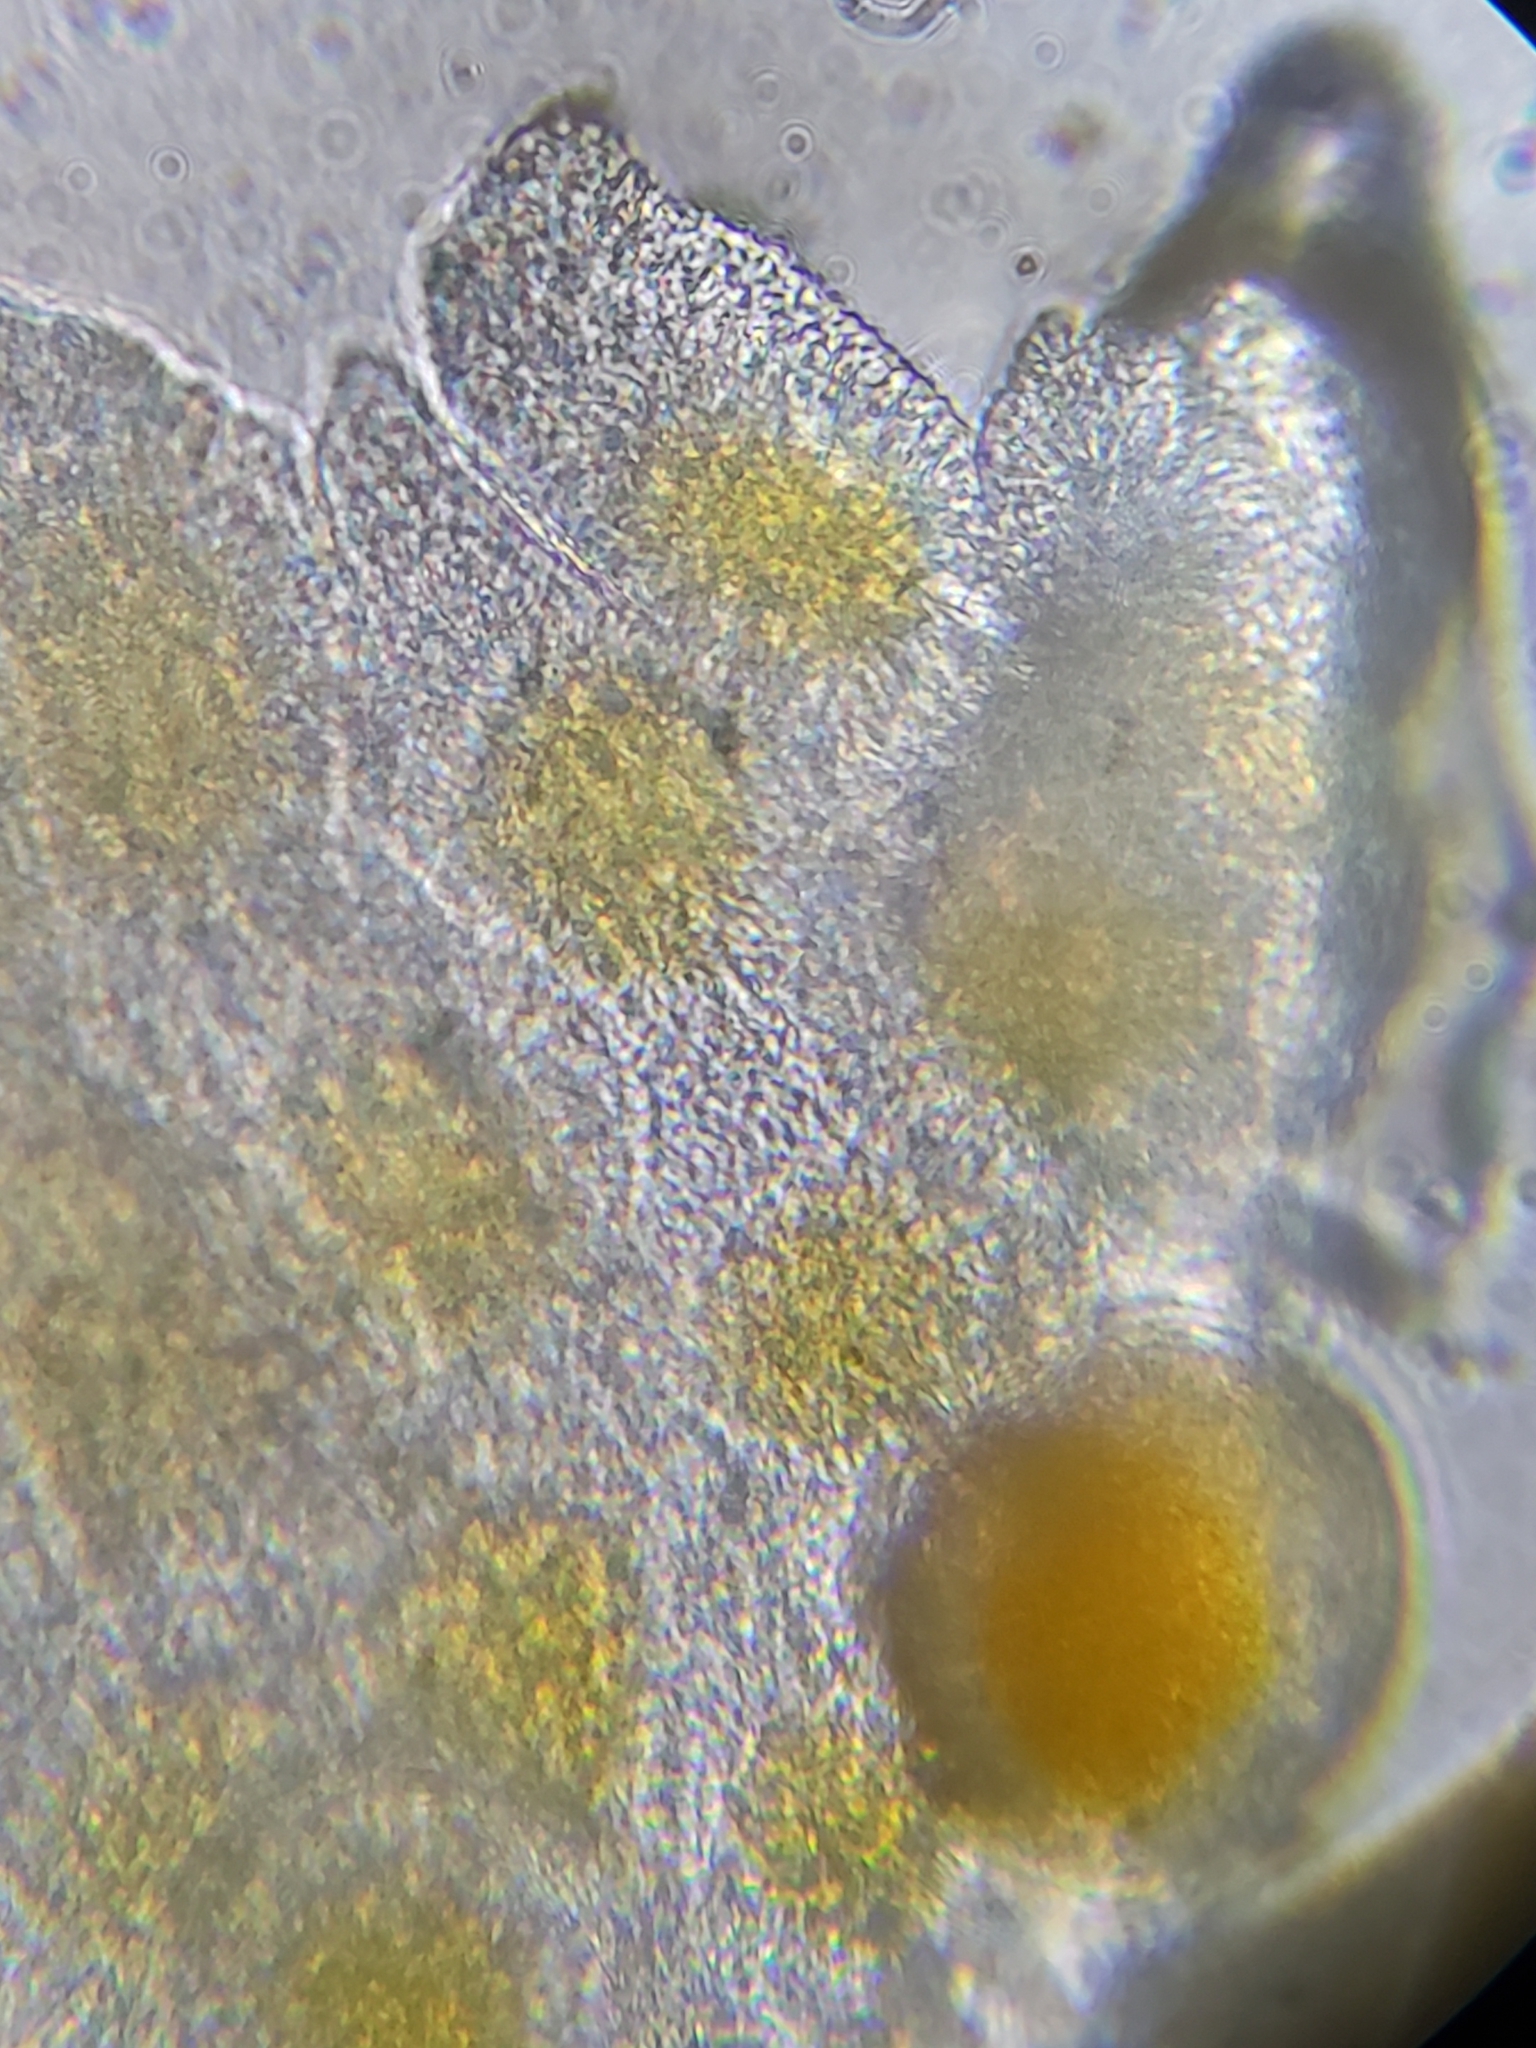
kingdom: Fungi
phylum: Basidiomycota
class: Pucciniomycetes
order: Pucciniales
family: Pucciniaceae
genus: Puccinia
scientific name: Puccinia sparganioidis
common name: Ash rust
